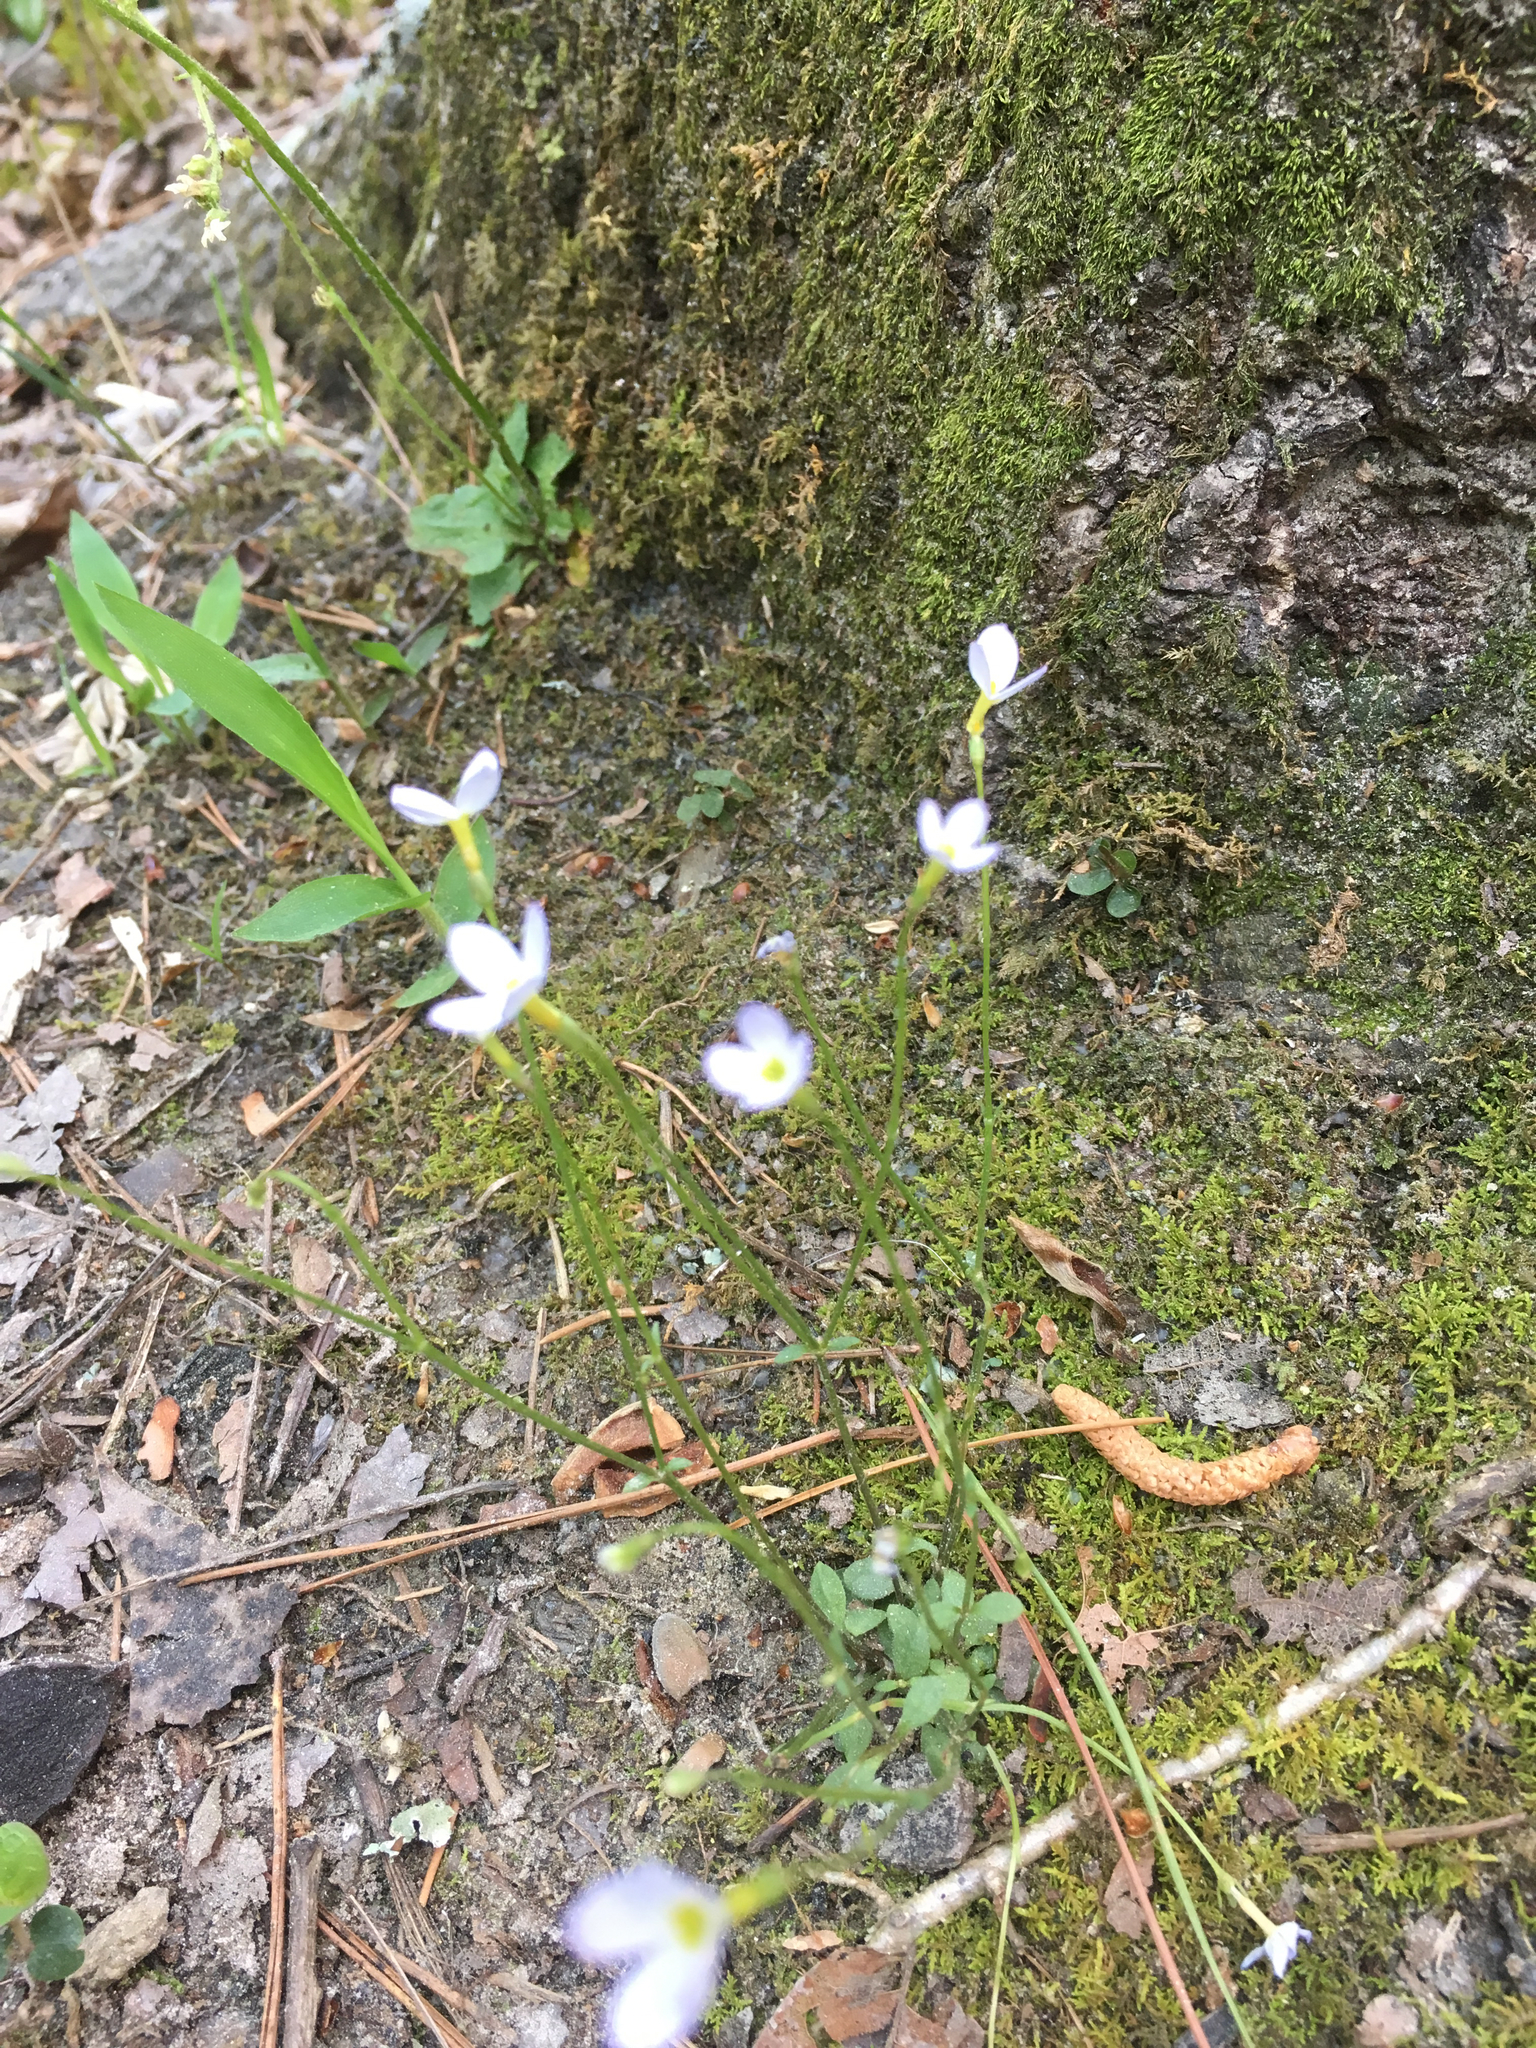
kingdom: Plantae
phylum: Tracheophyta
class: Magnoliopsida
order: Gentianales
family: Rubiaceae
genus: Houstonia
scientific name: Houstonia caerulea
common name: Bluets
